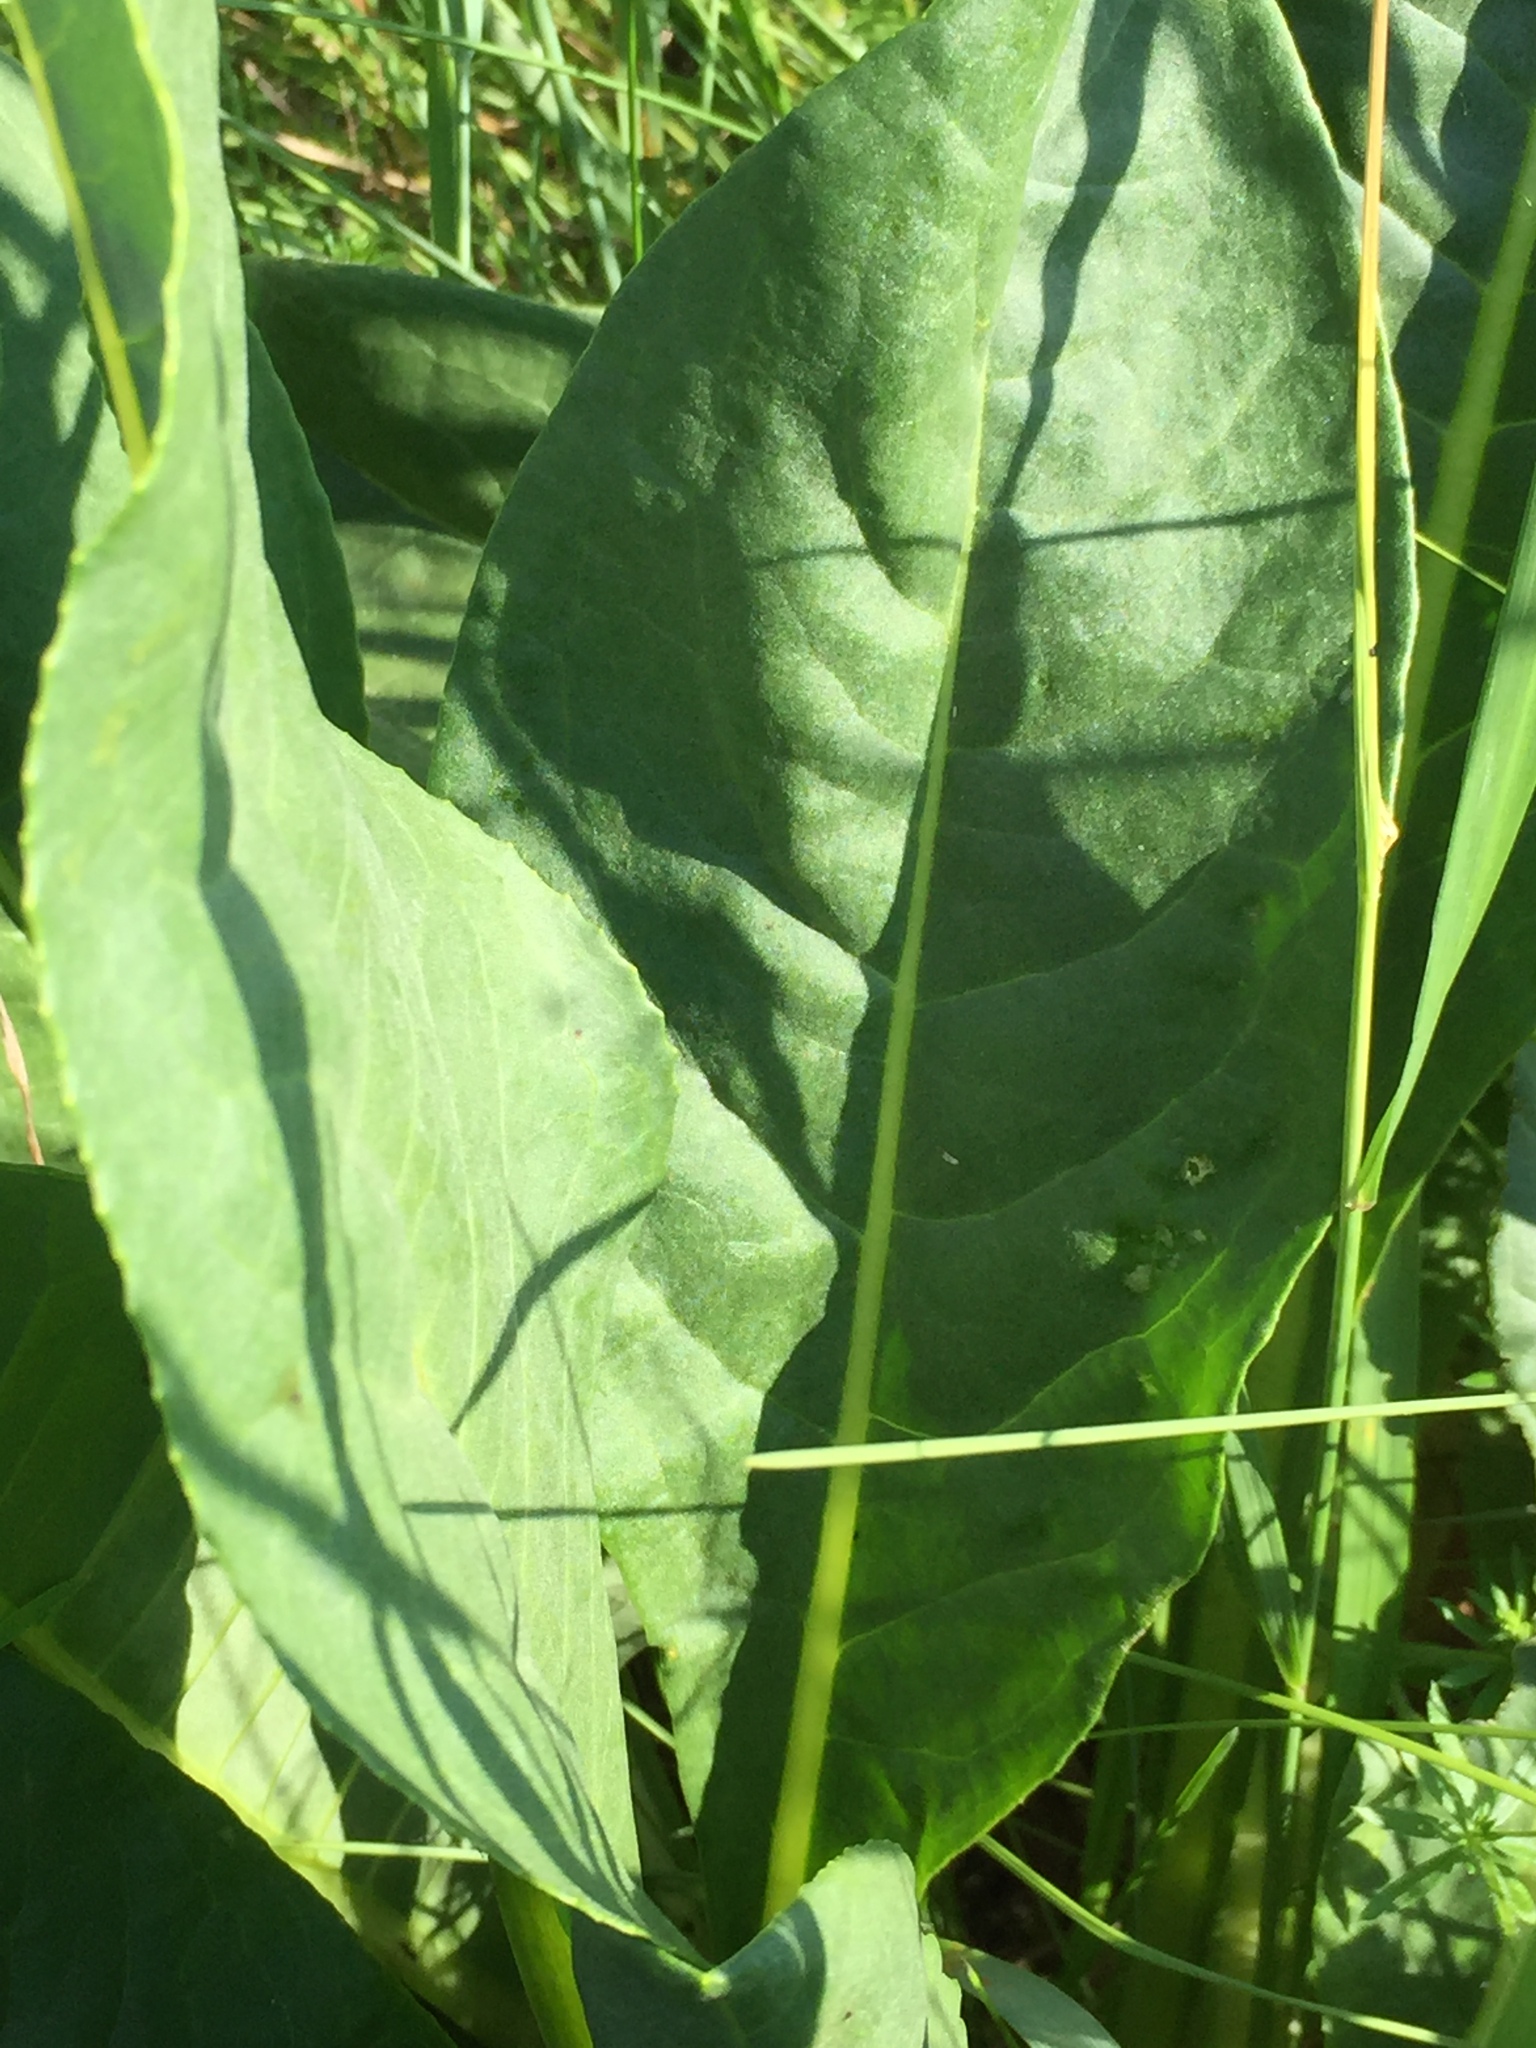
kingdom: Plantae
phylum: Tracheophyta
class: Magnoliopsida
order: Asterales
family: Asteraceae
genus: Senecio
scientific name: Senecio doria
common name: Golden ragwort
